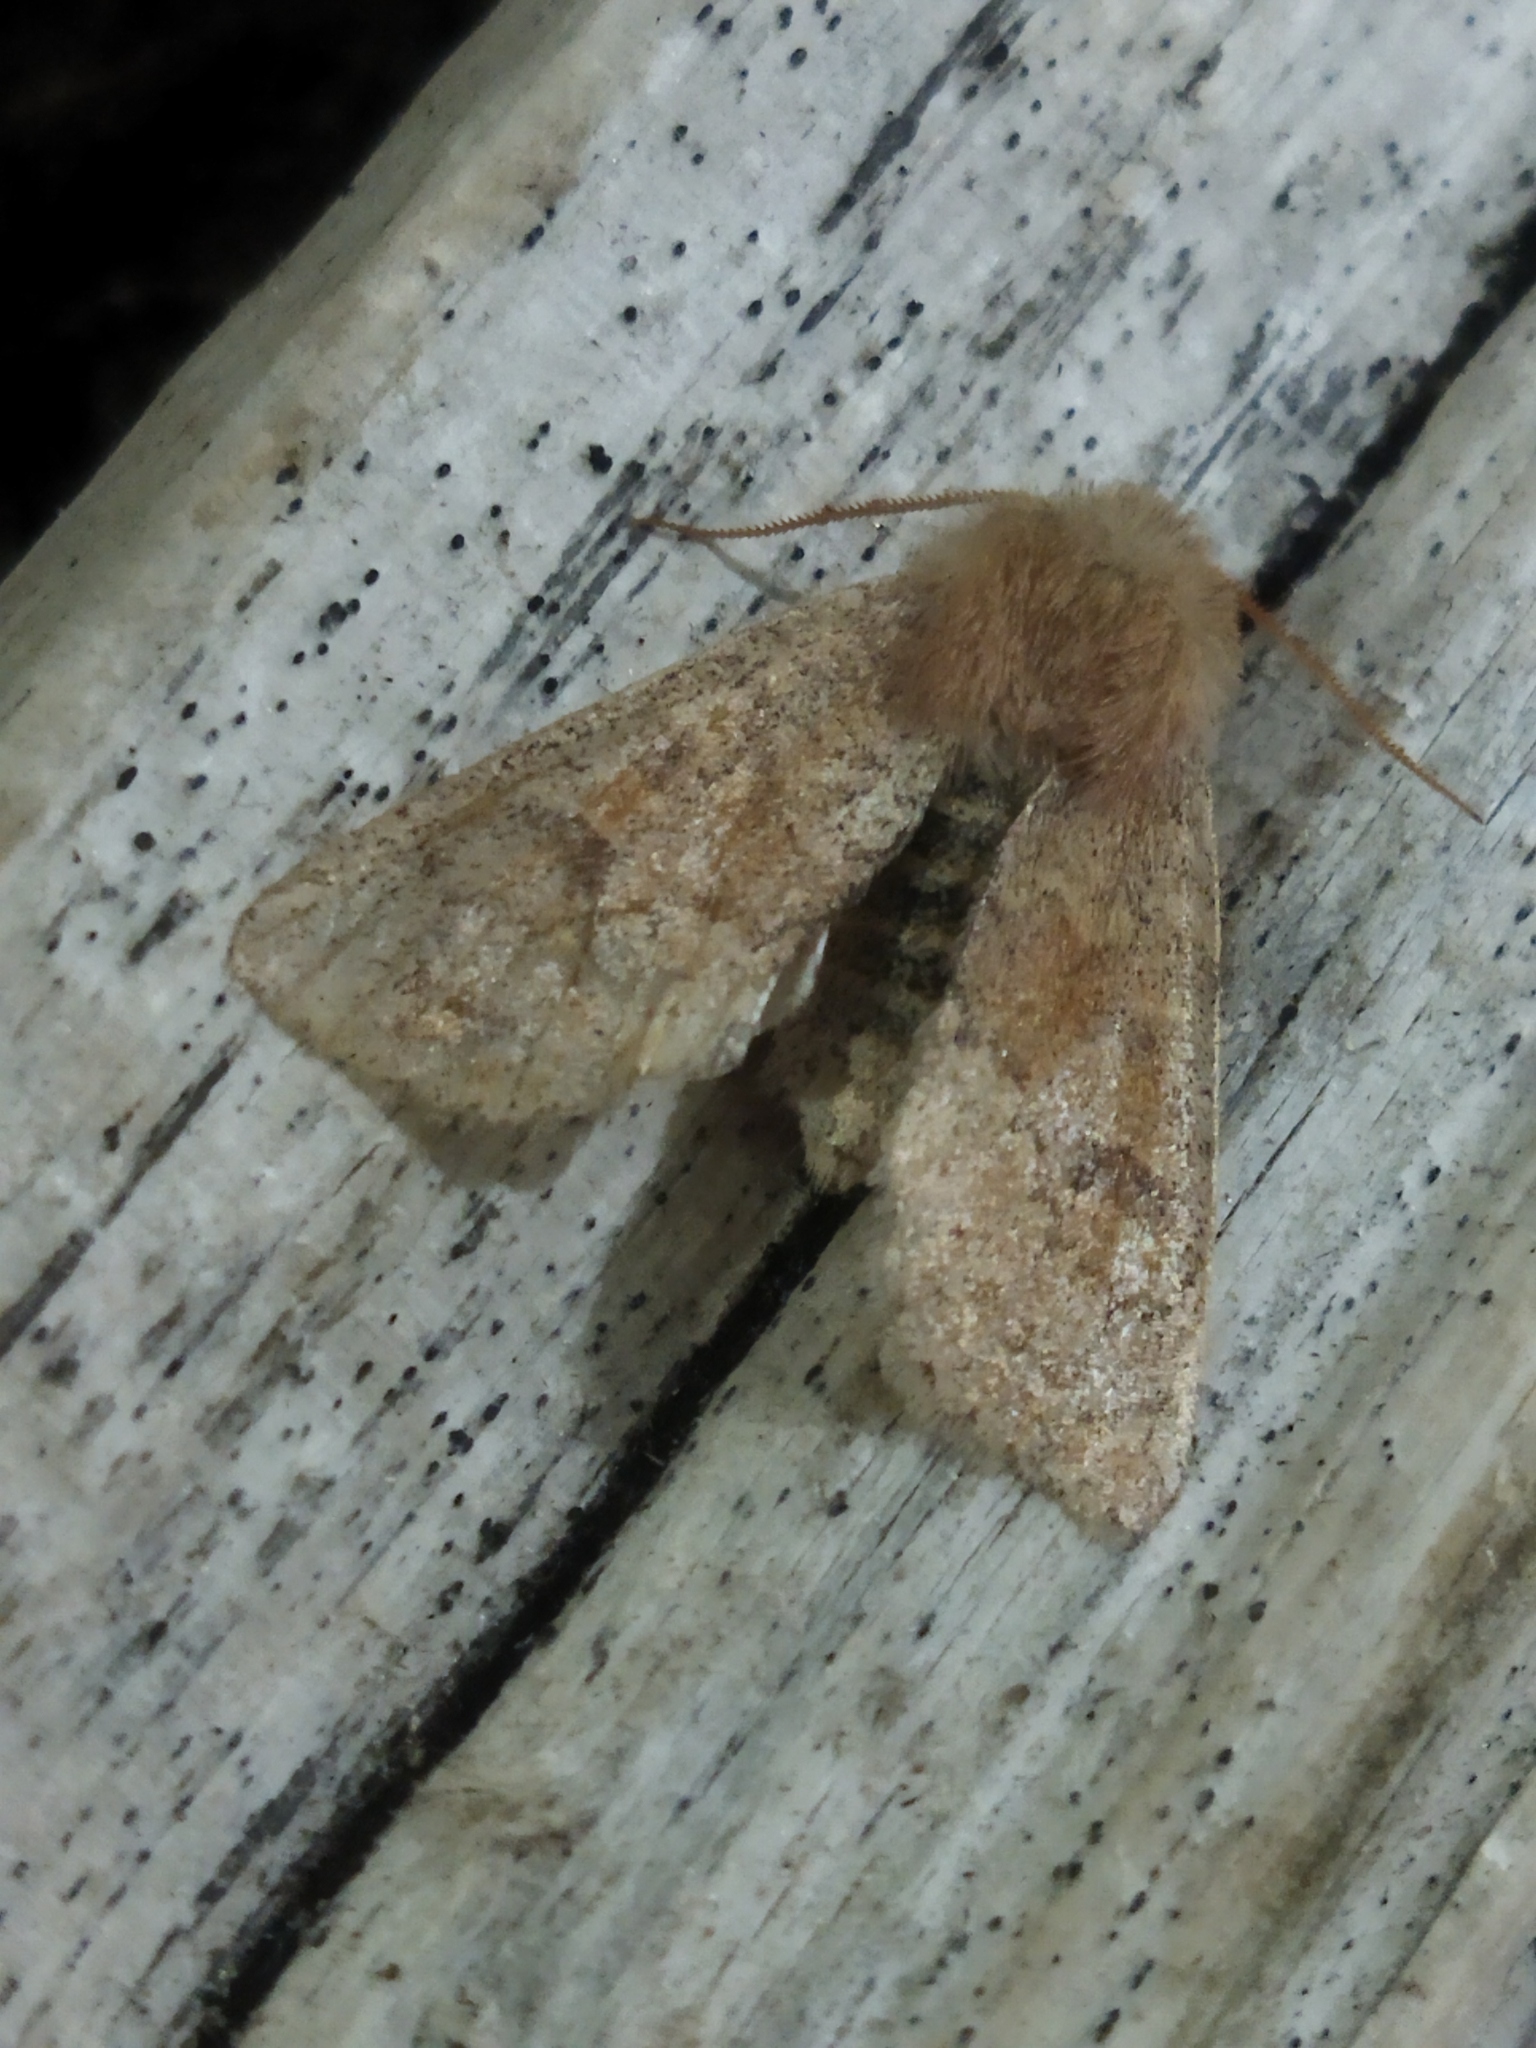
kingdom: Animalia
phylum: Arthropoda
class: Insecta
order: Lepidoptera
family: Noctuidae
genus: Orthosia
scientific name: Orthosia miniosa
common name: Blossom underwing
